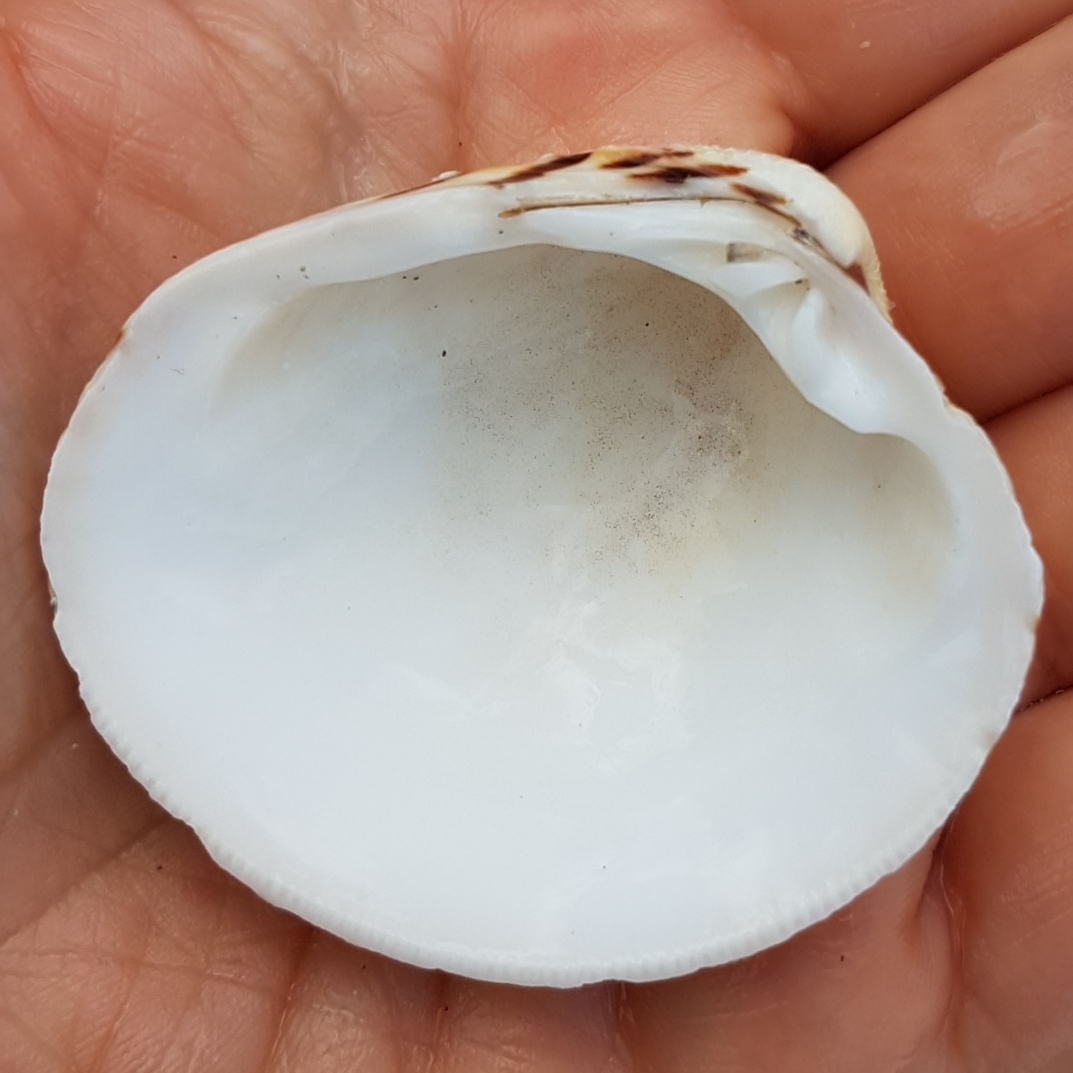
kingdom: Animalia
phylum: Mollusca
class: Bivalvia
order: Venerida
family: Veneridae
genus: Venus
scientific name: Venus verrucosa
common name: Warty venus
